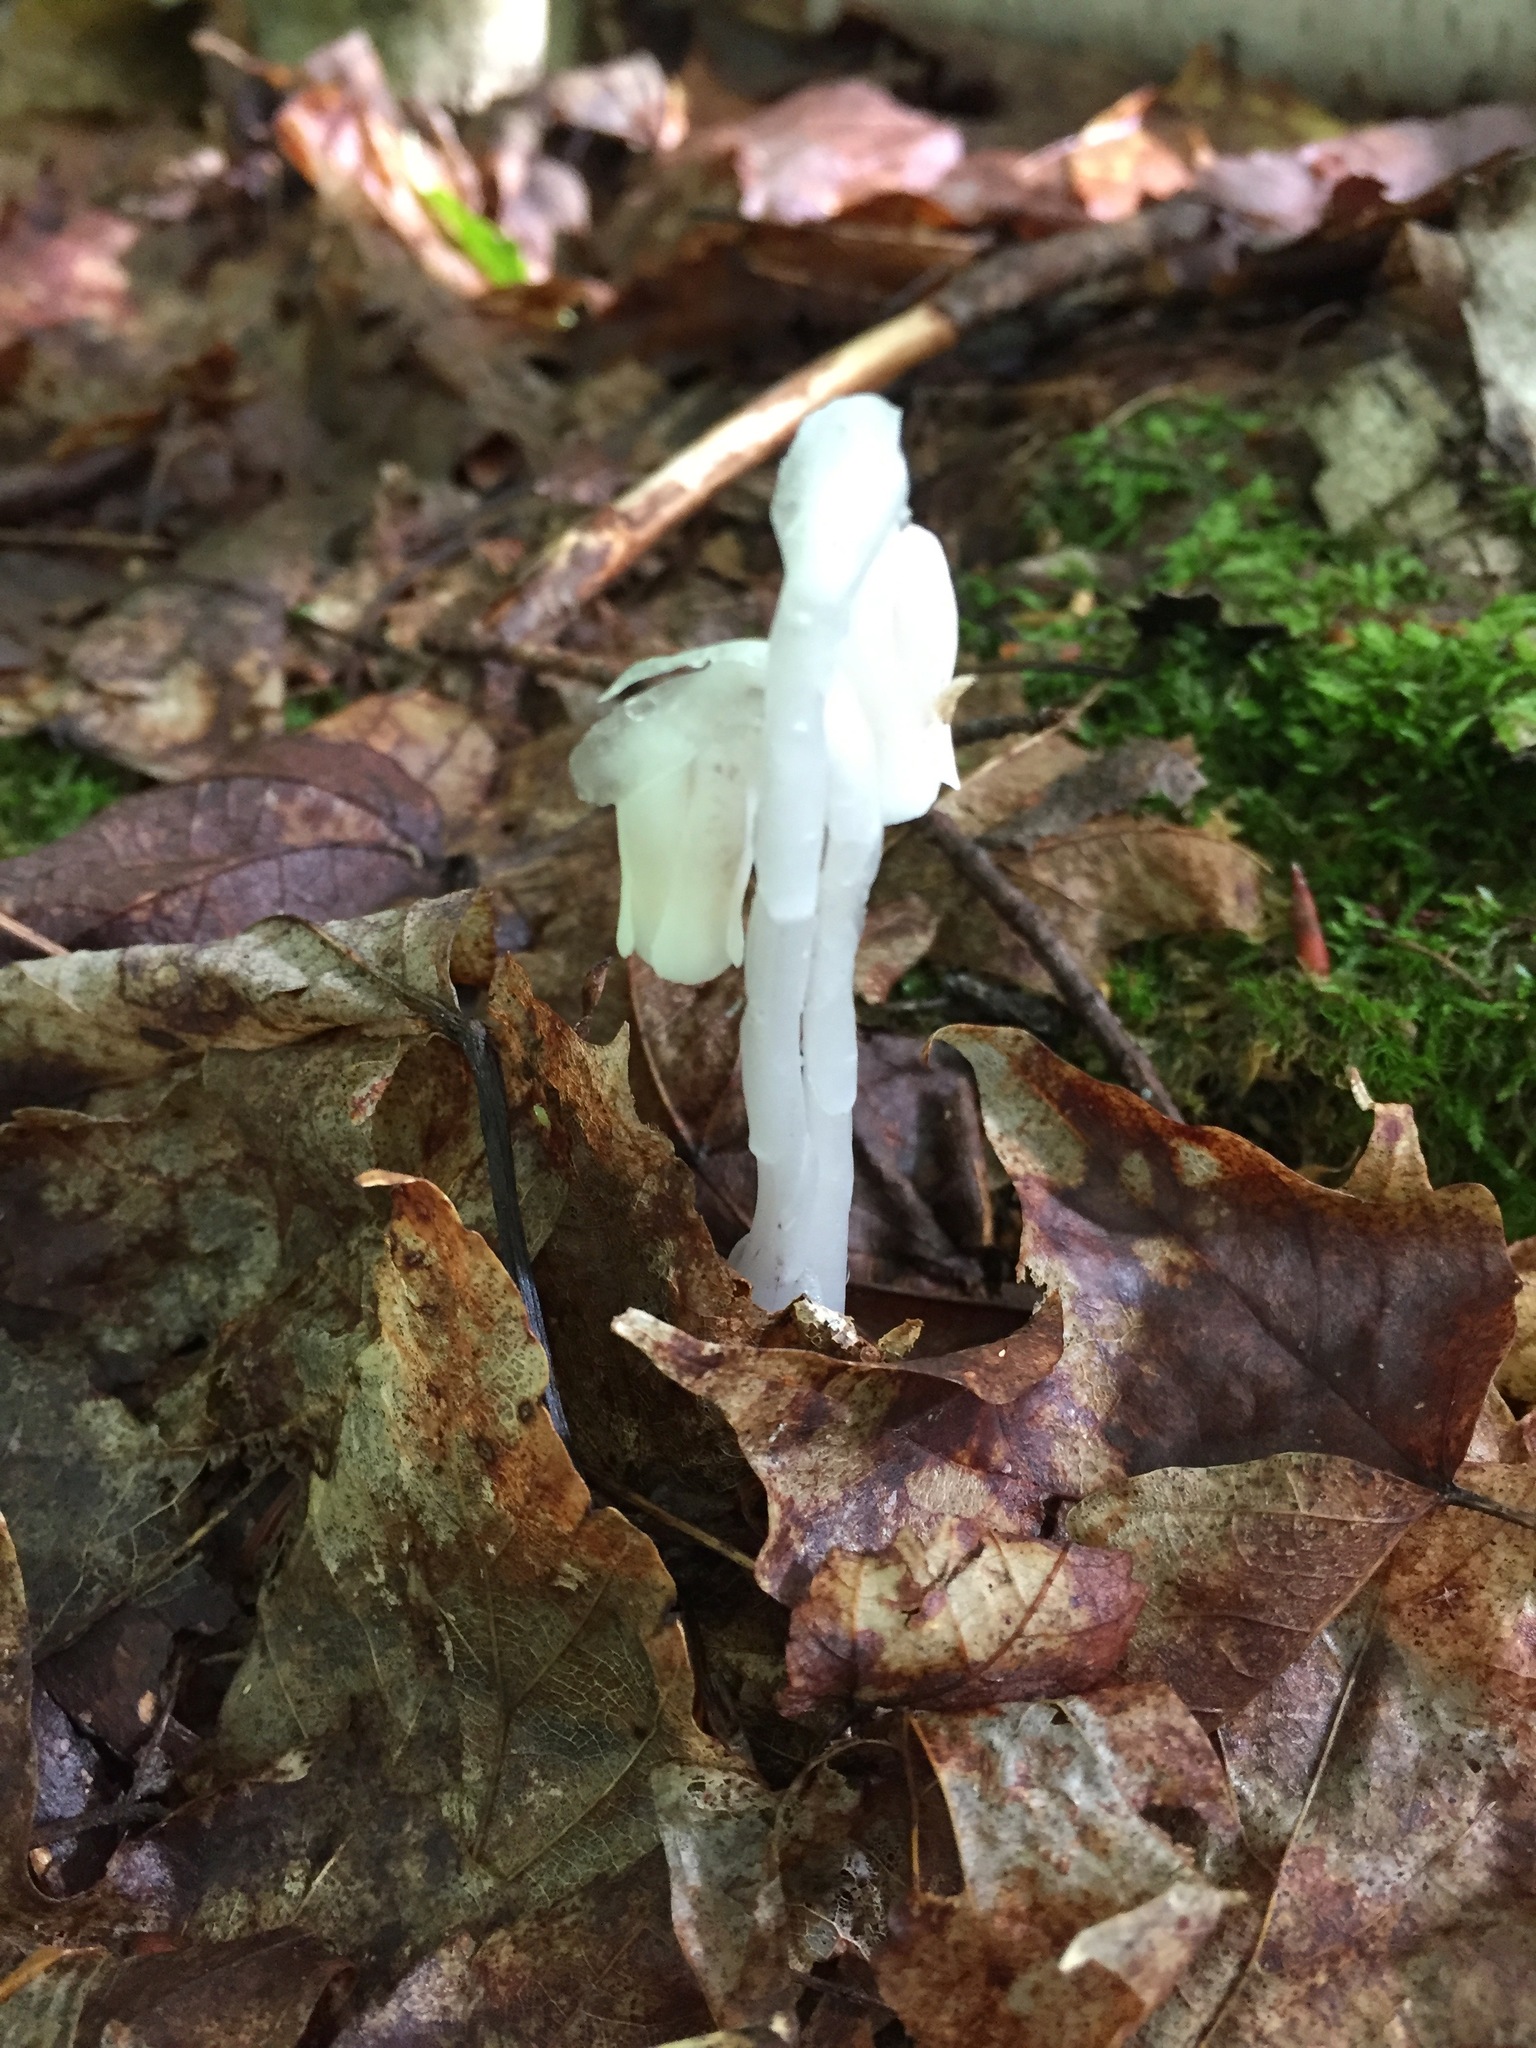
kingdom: Plantae
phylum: Tracheophyta
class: Magnoliopsida
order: Ericales
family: Ericaceae
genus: Monotropa
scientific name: Monotropa uniflora
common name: Convulsion root
